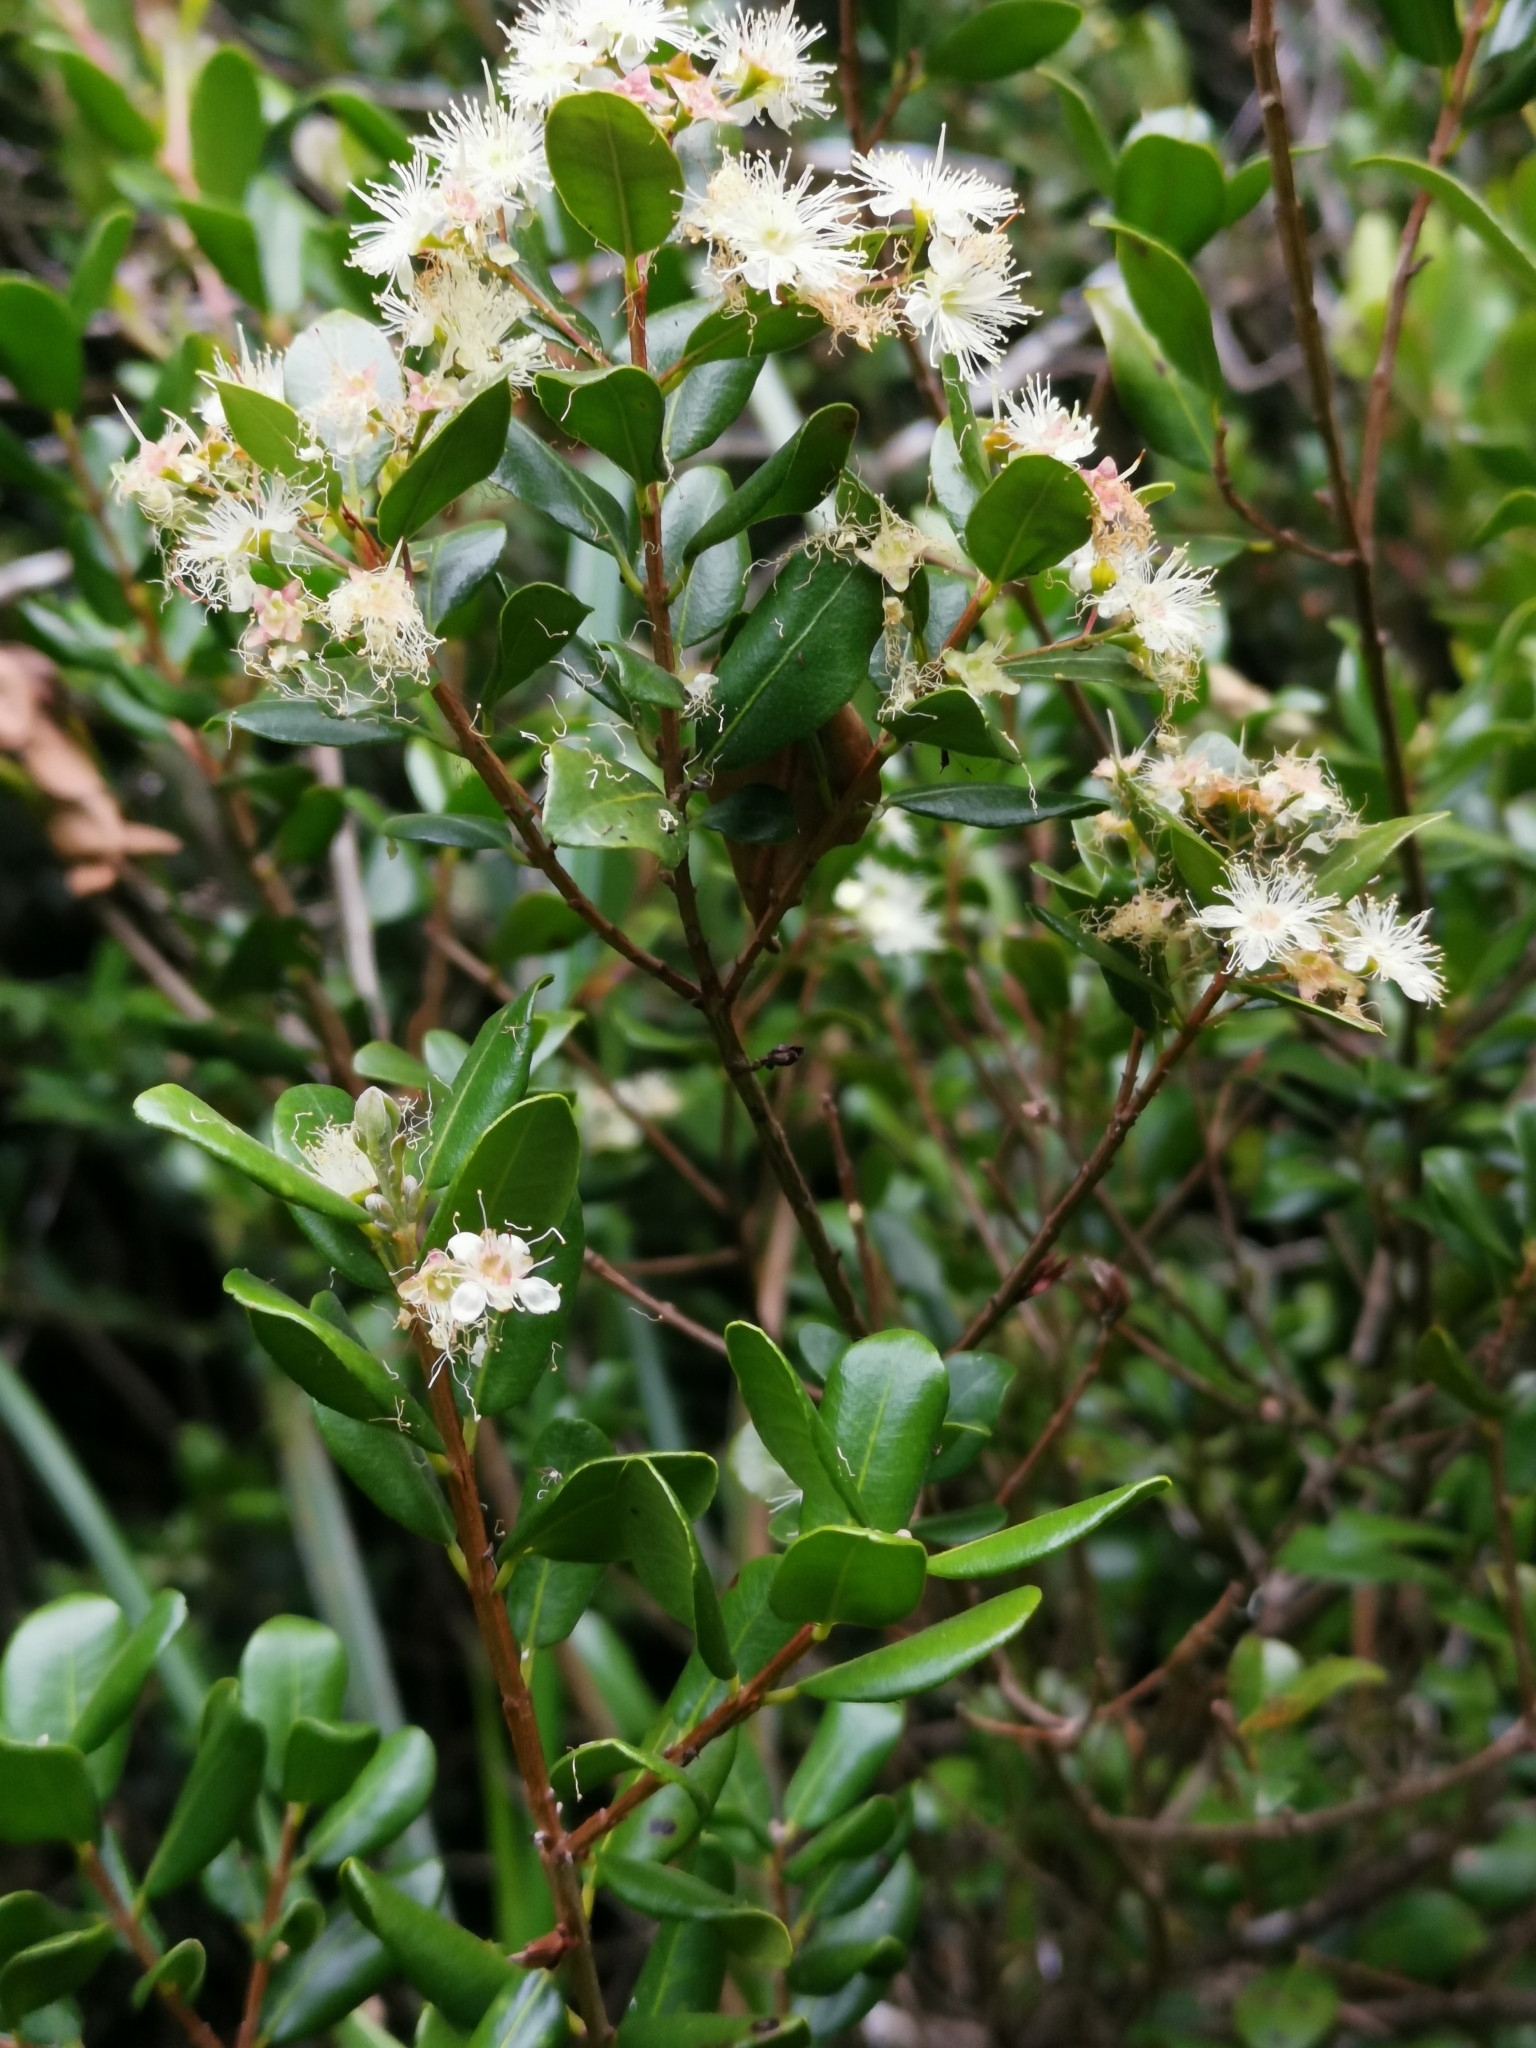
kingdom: Plantae
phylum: Tracheophyta
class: Magnoliopsida
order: Myrtales
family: Myrtaceae
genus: Blepharocalyx
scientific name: Blepharocalyx cruckshanksii
